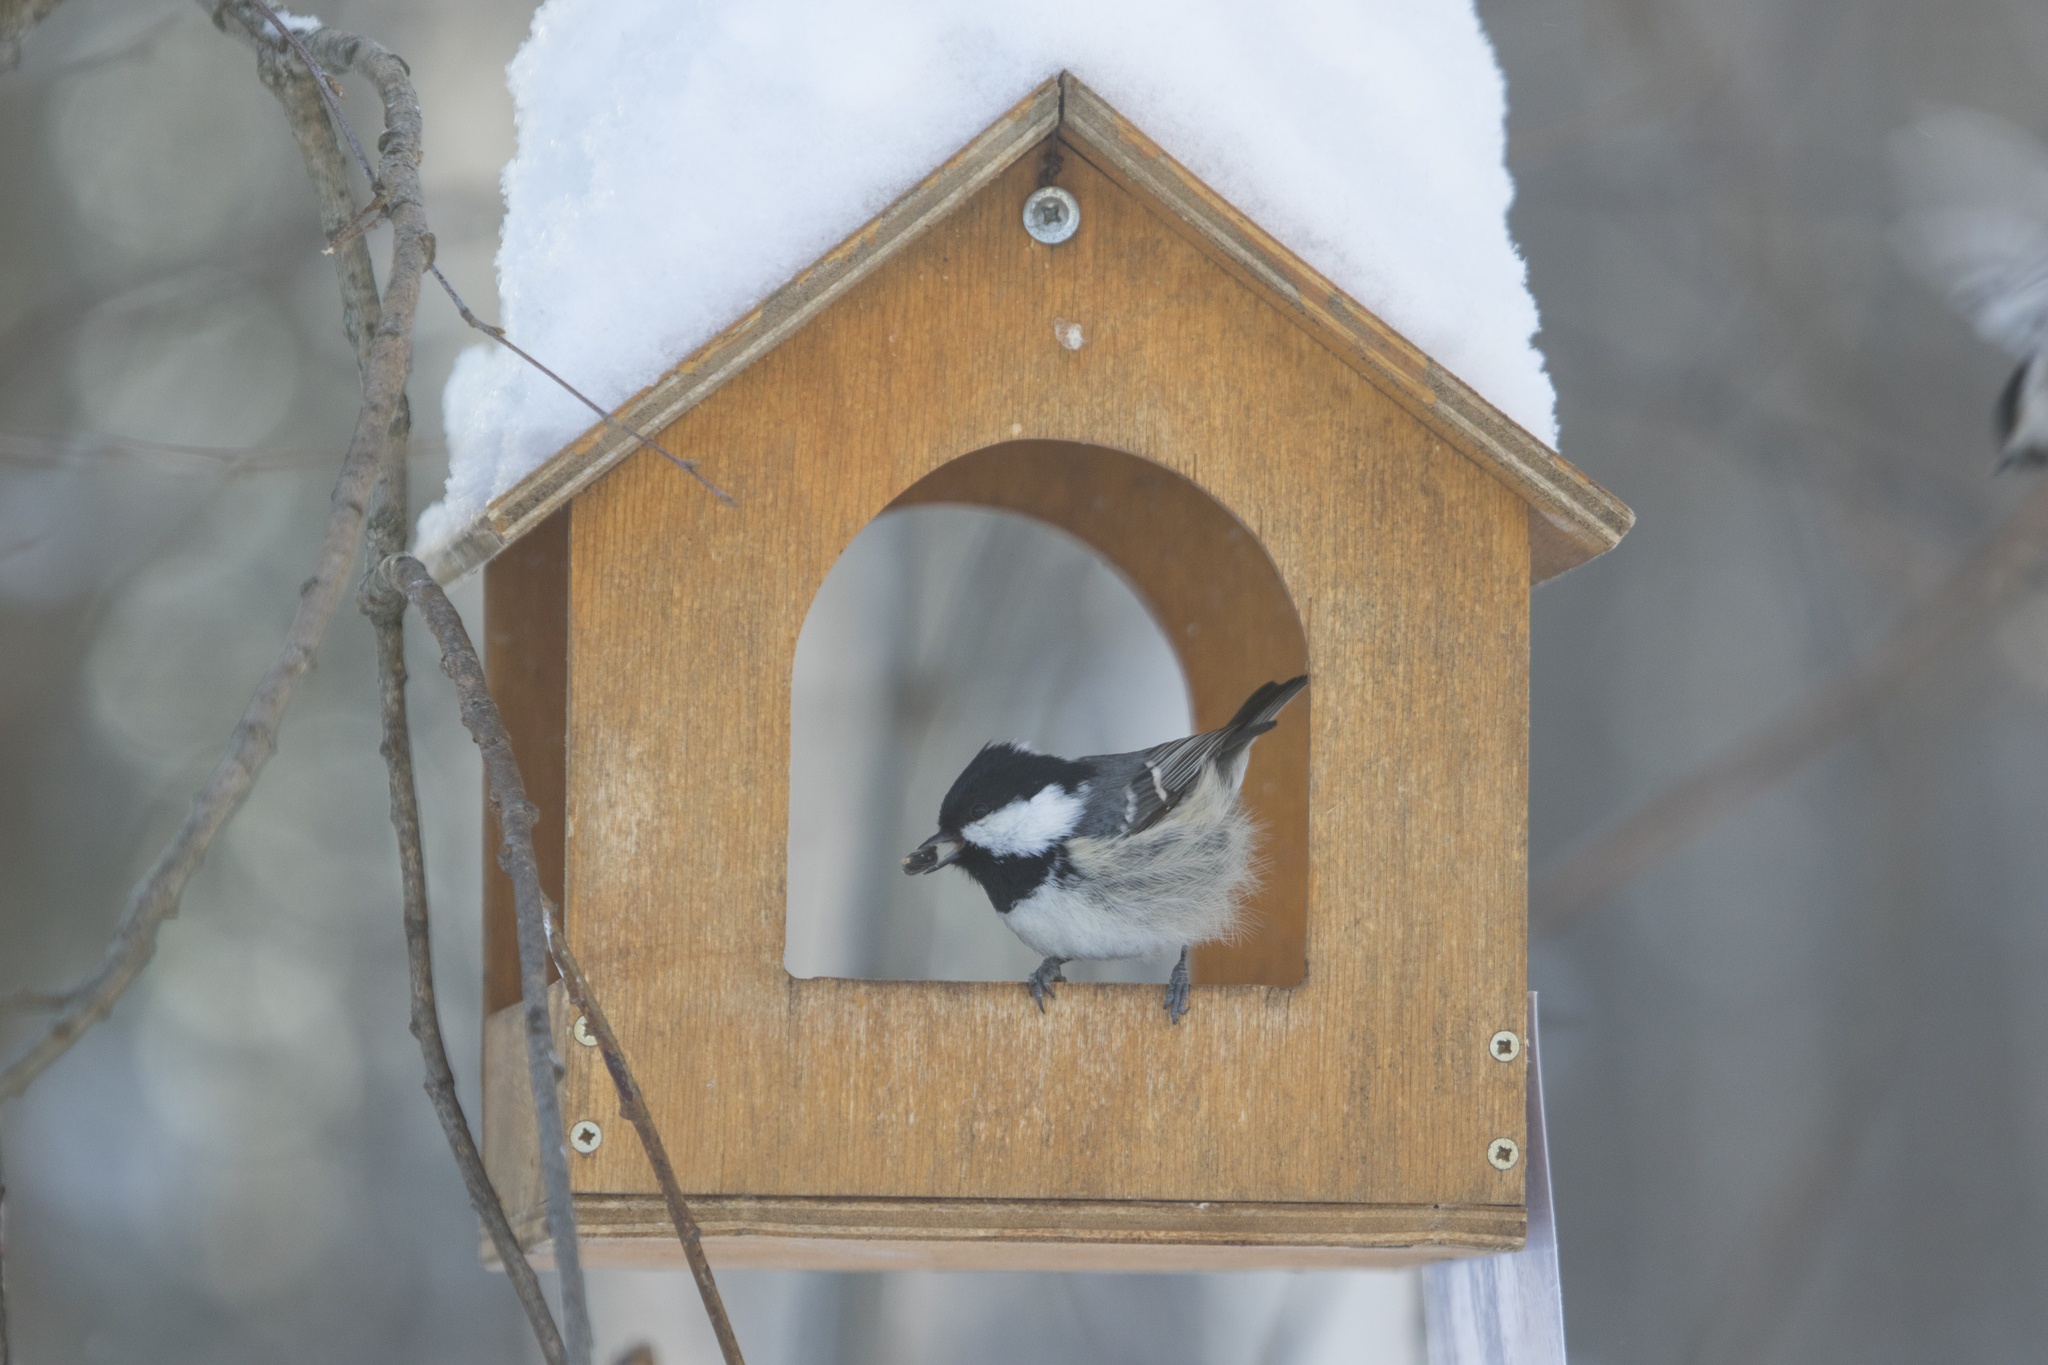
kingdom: Animalia
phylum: Chordata
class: Aves
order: Passeriformes
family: Paridae
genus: Periparus
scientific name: Periparus ater
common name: Coal tit
